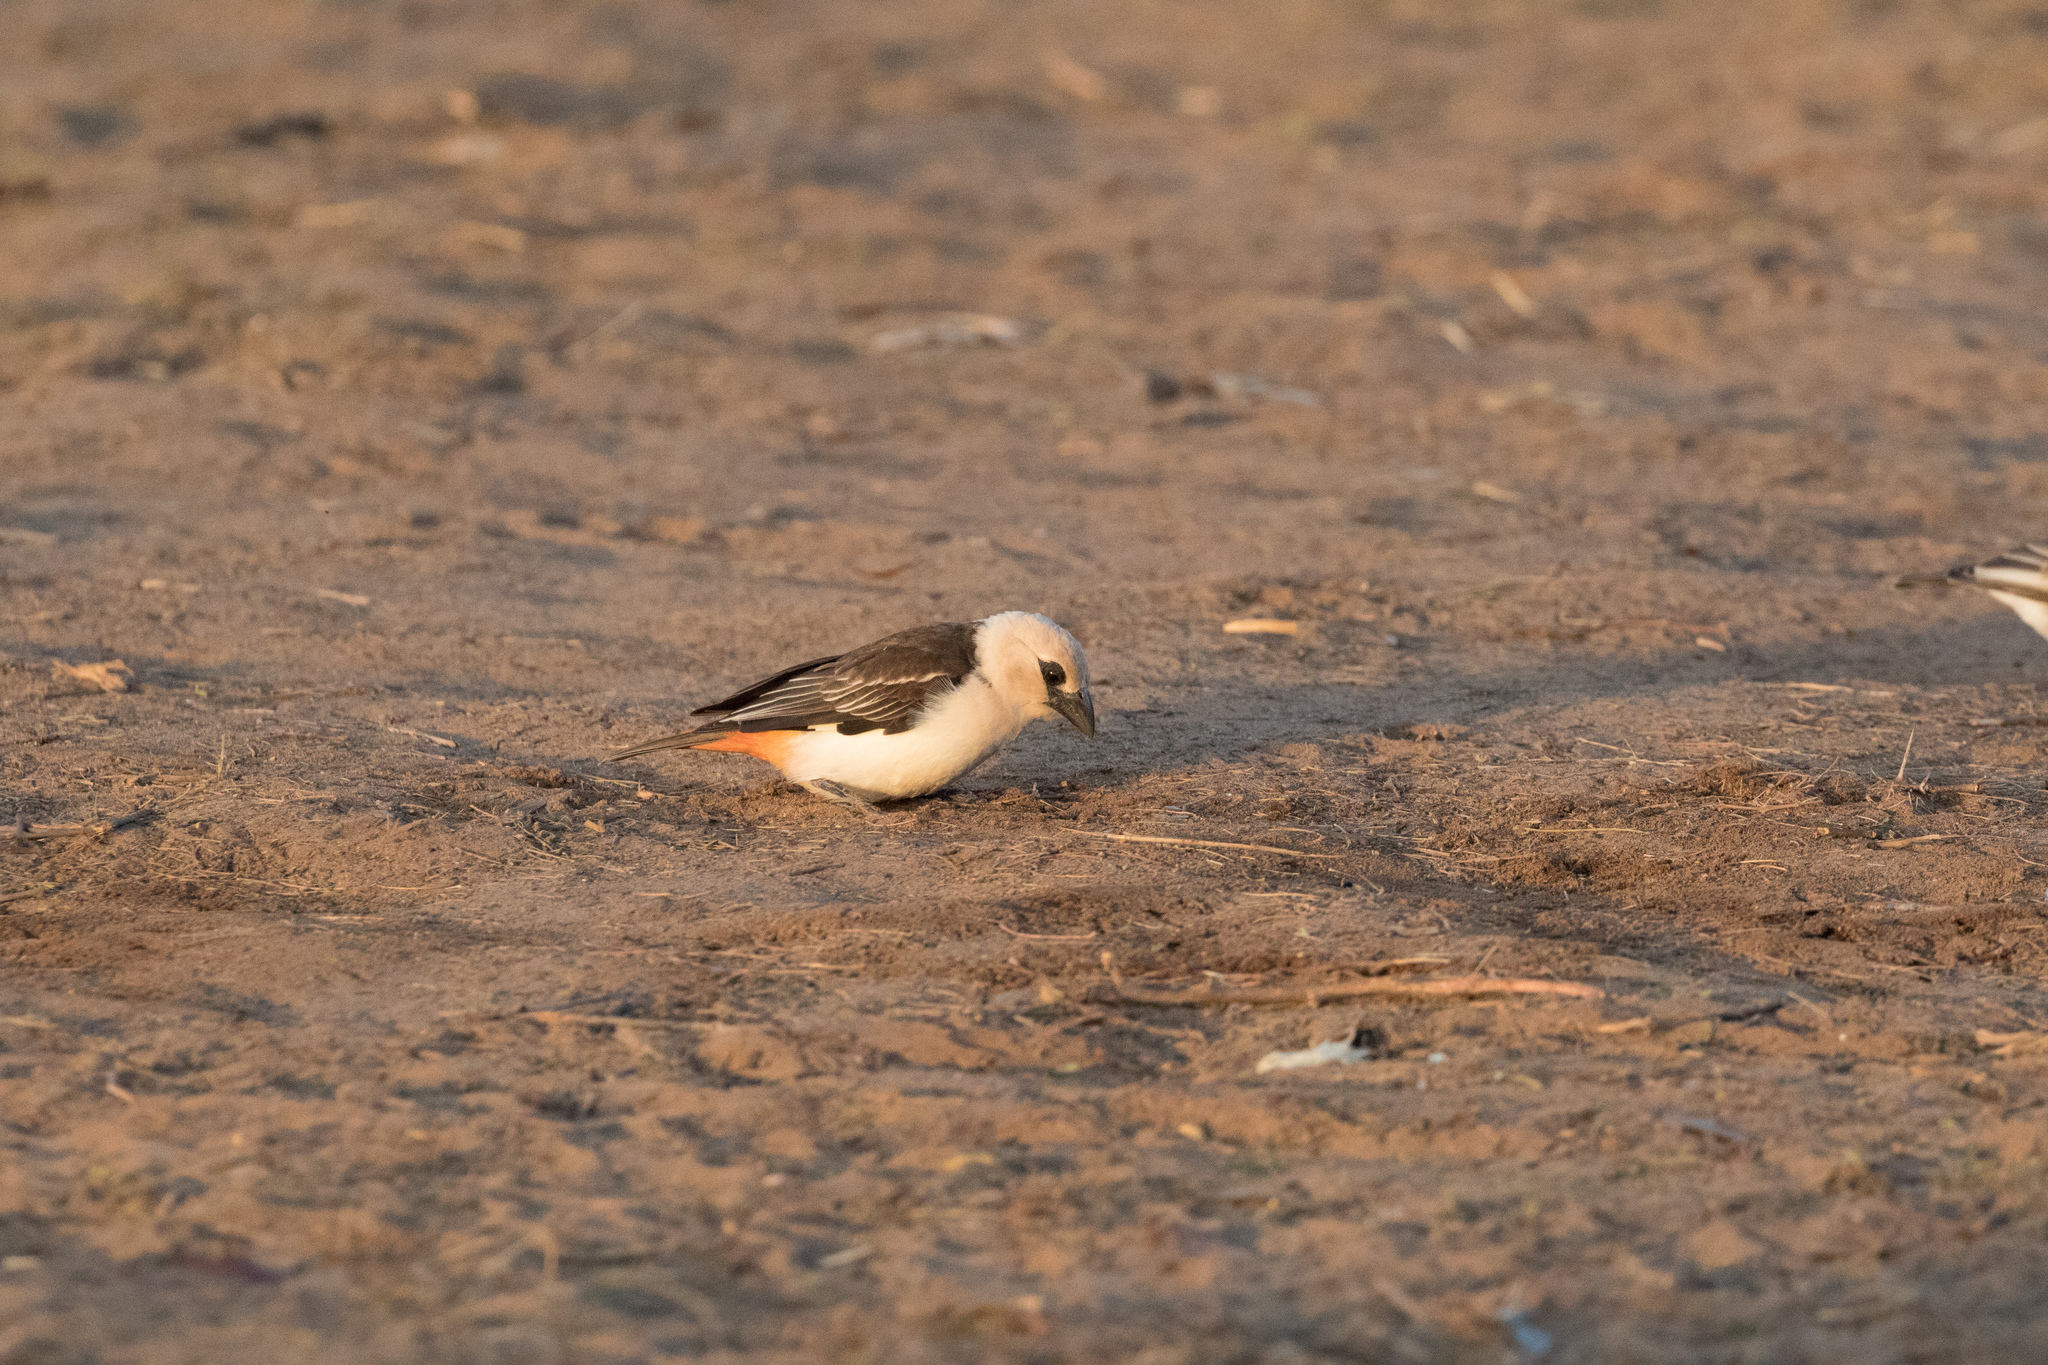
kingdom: Animalia
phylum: Chordata
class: Aves
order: Passeriformes
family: Ploceidae
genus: Dinemellia
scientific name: Dinemellia dinemelli
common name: White-headed buffalo weaver
